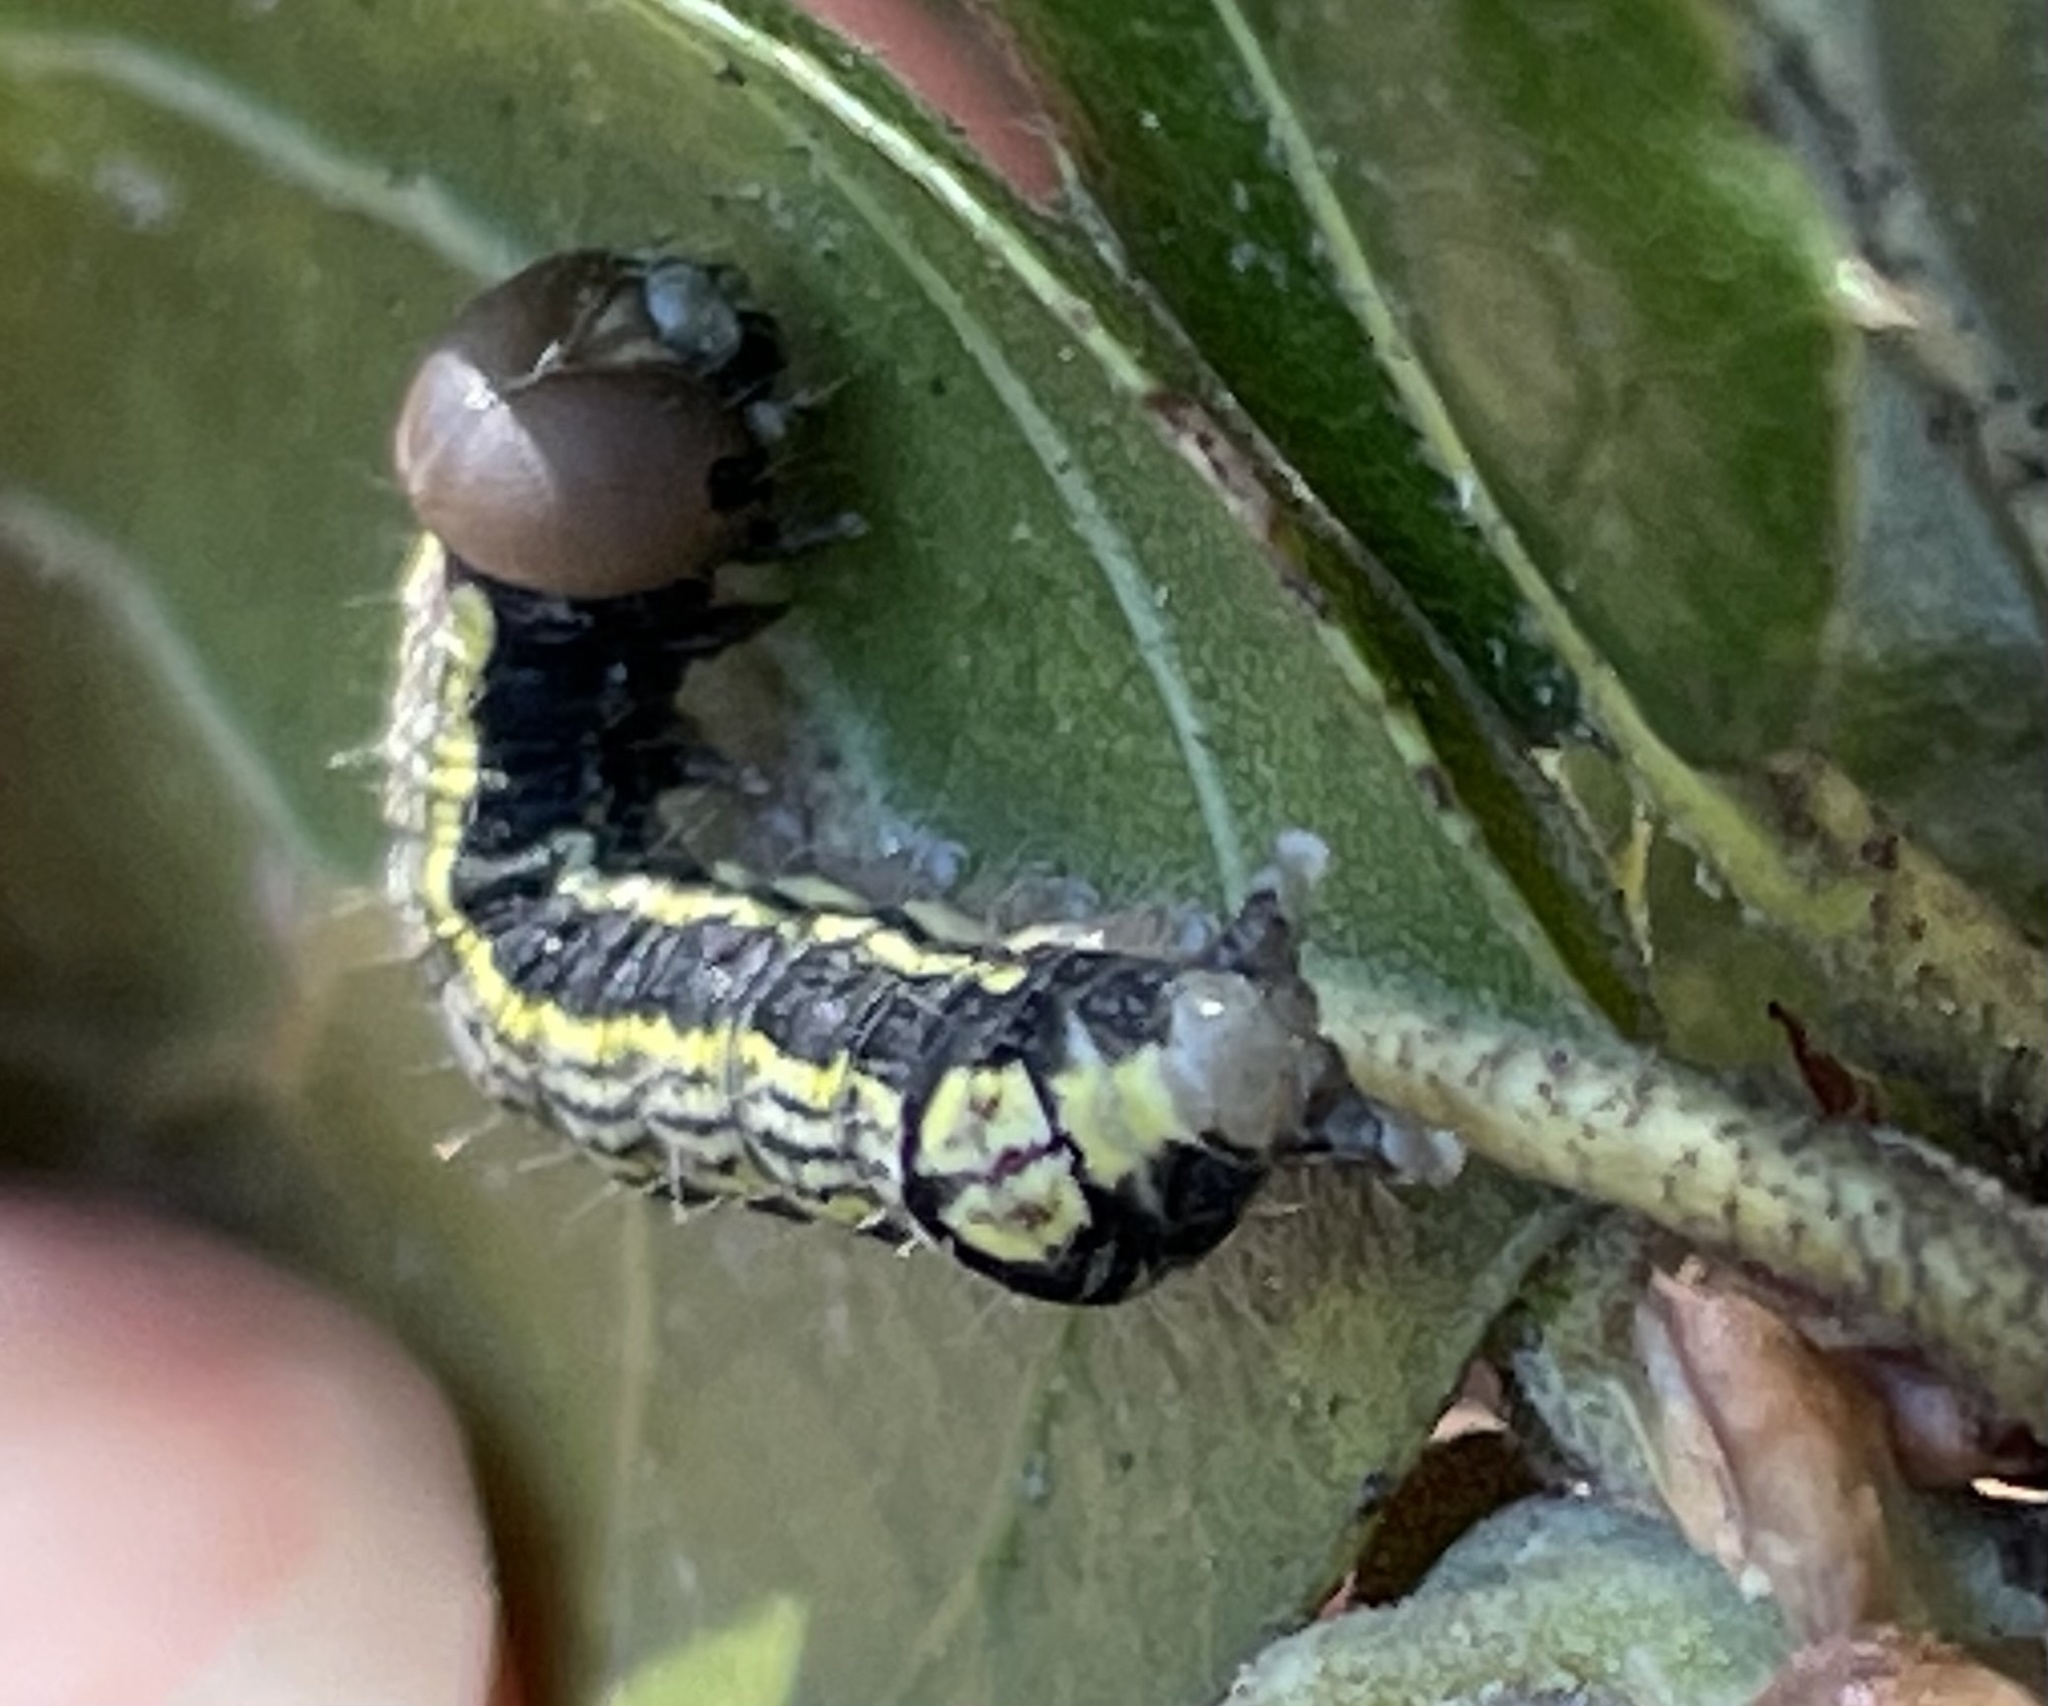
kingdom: Animalia
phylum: Arthropoda
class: Insecta
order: Lepidoptera
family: Notodontidae
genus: Phryganidia
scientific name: Phryganidia californica
